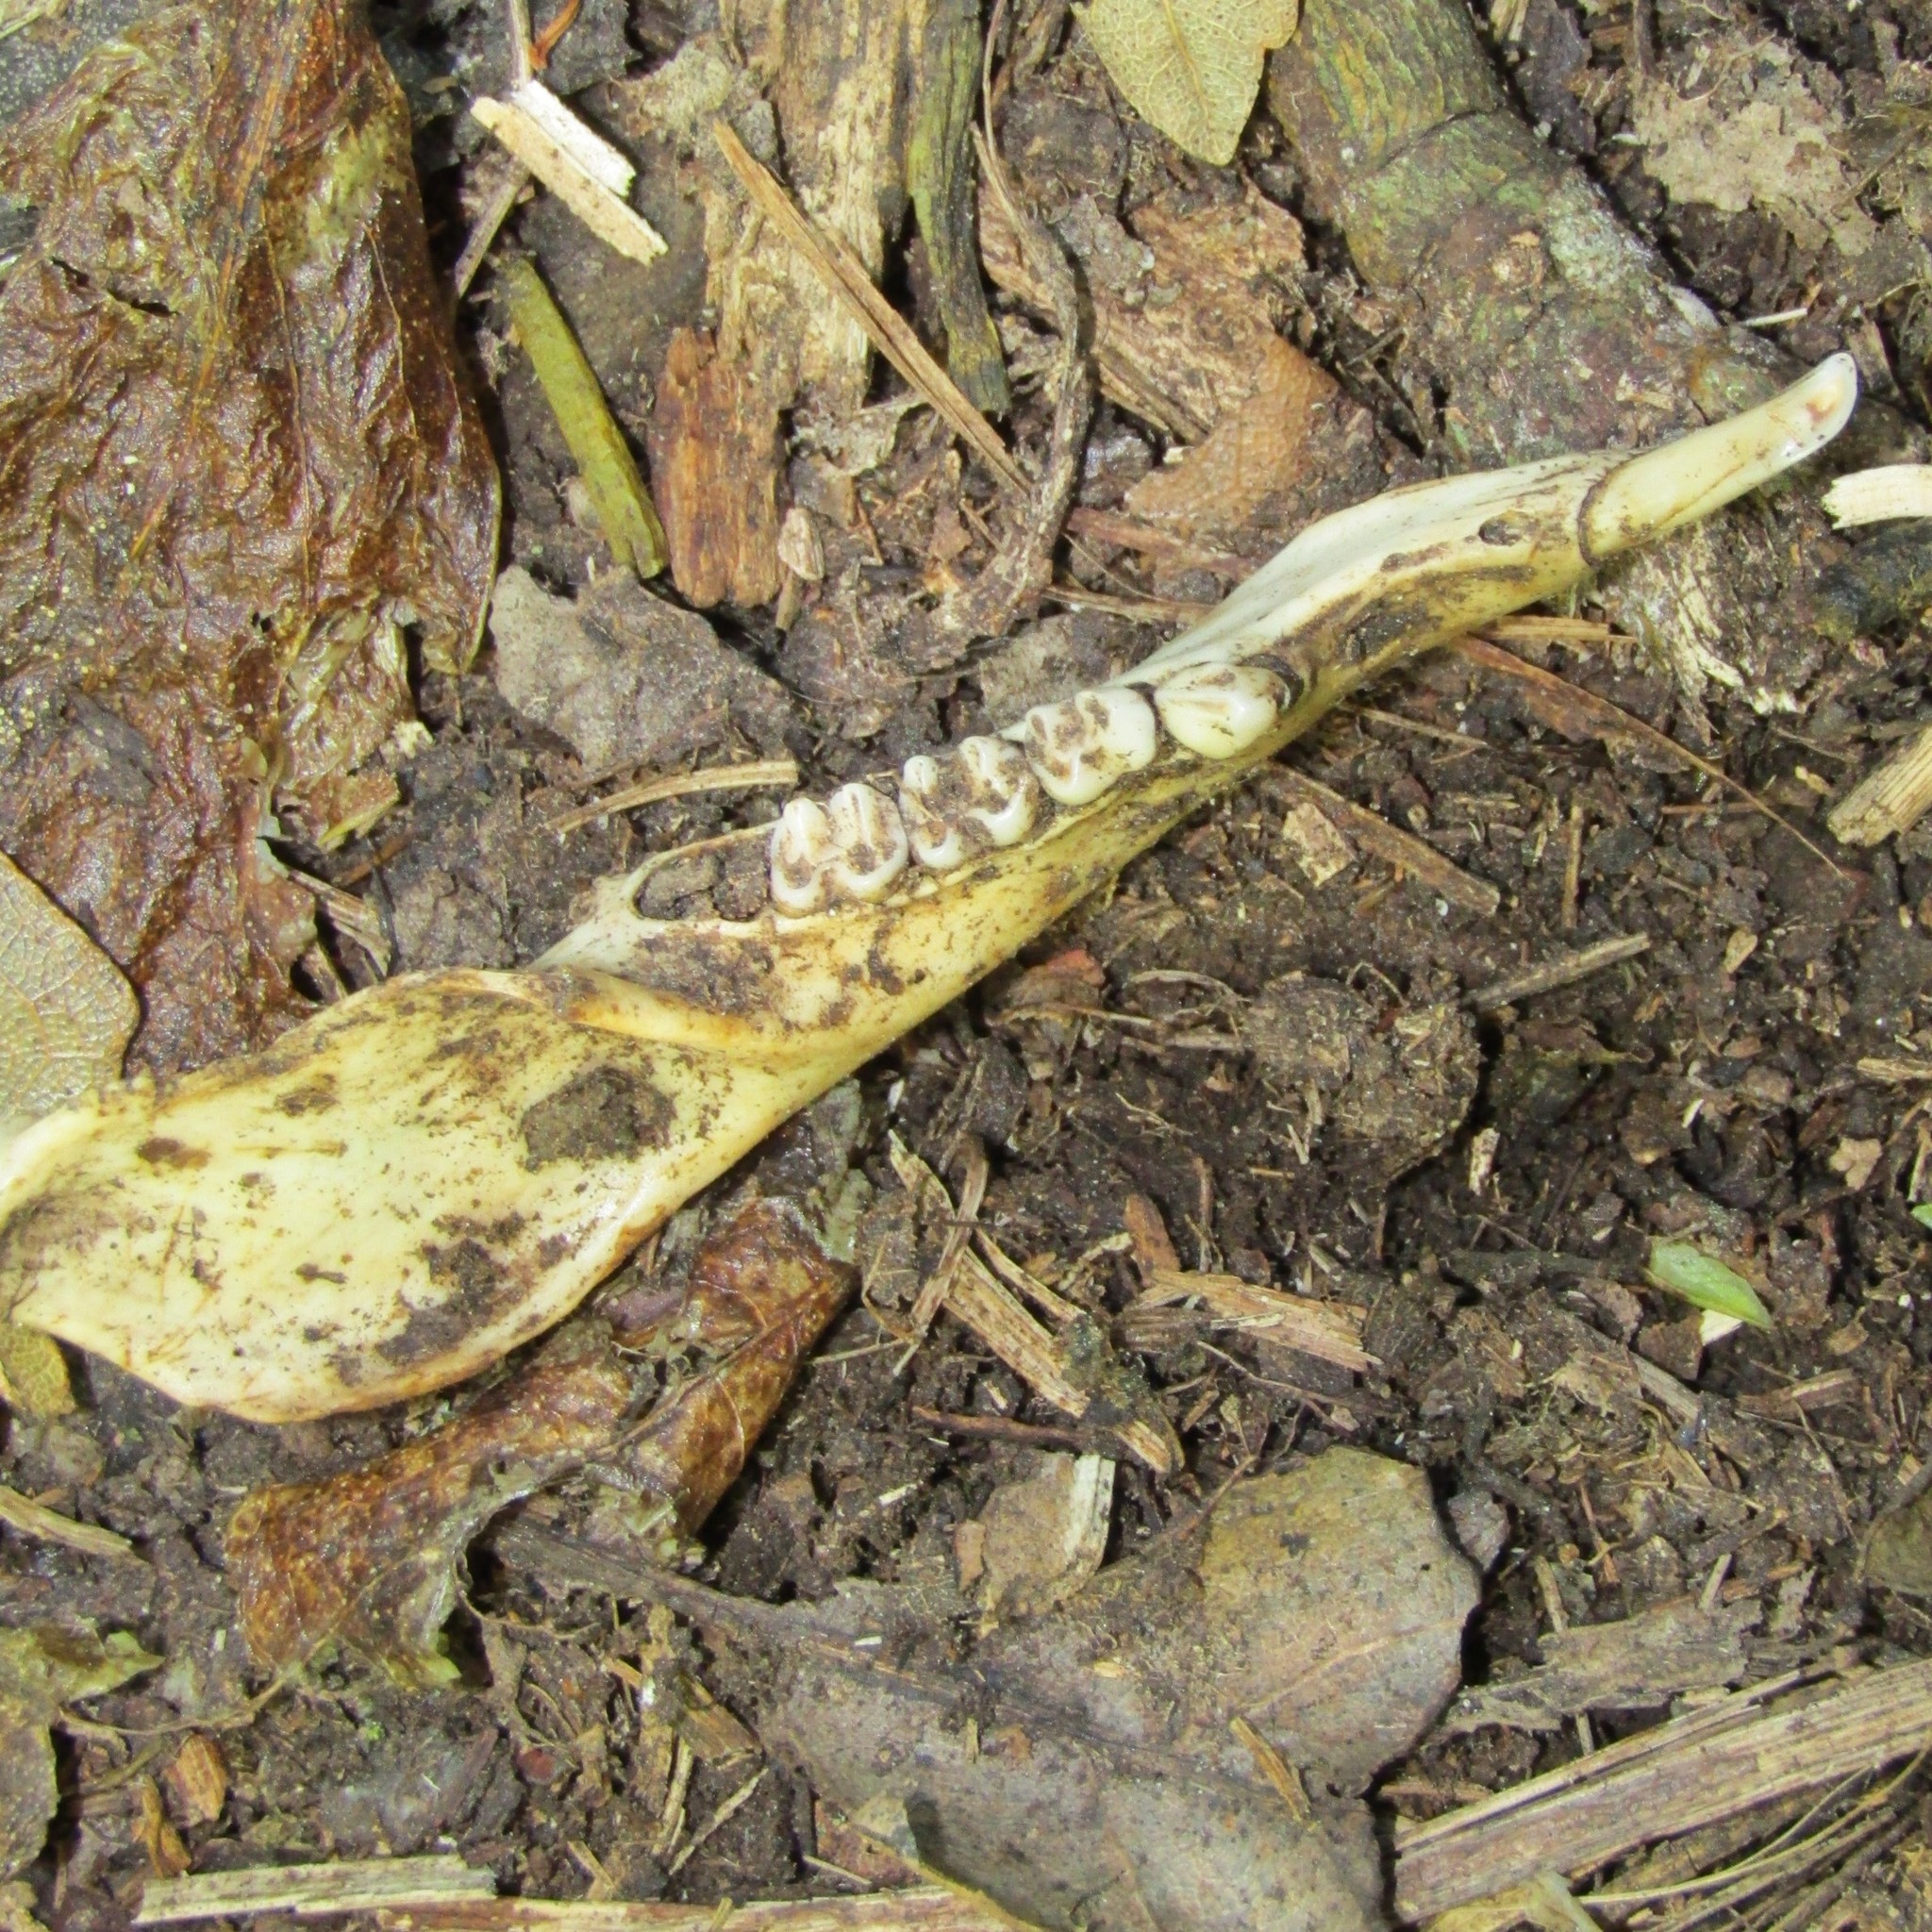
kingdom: Animalia
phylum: Chordata
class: Mammalia
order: Diprotodontia
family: Phalangeridae
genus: Trichosurus
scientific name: Trichosurus vulpecula
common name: Common brushtail
